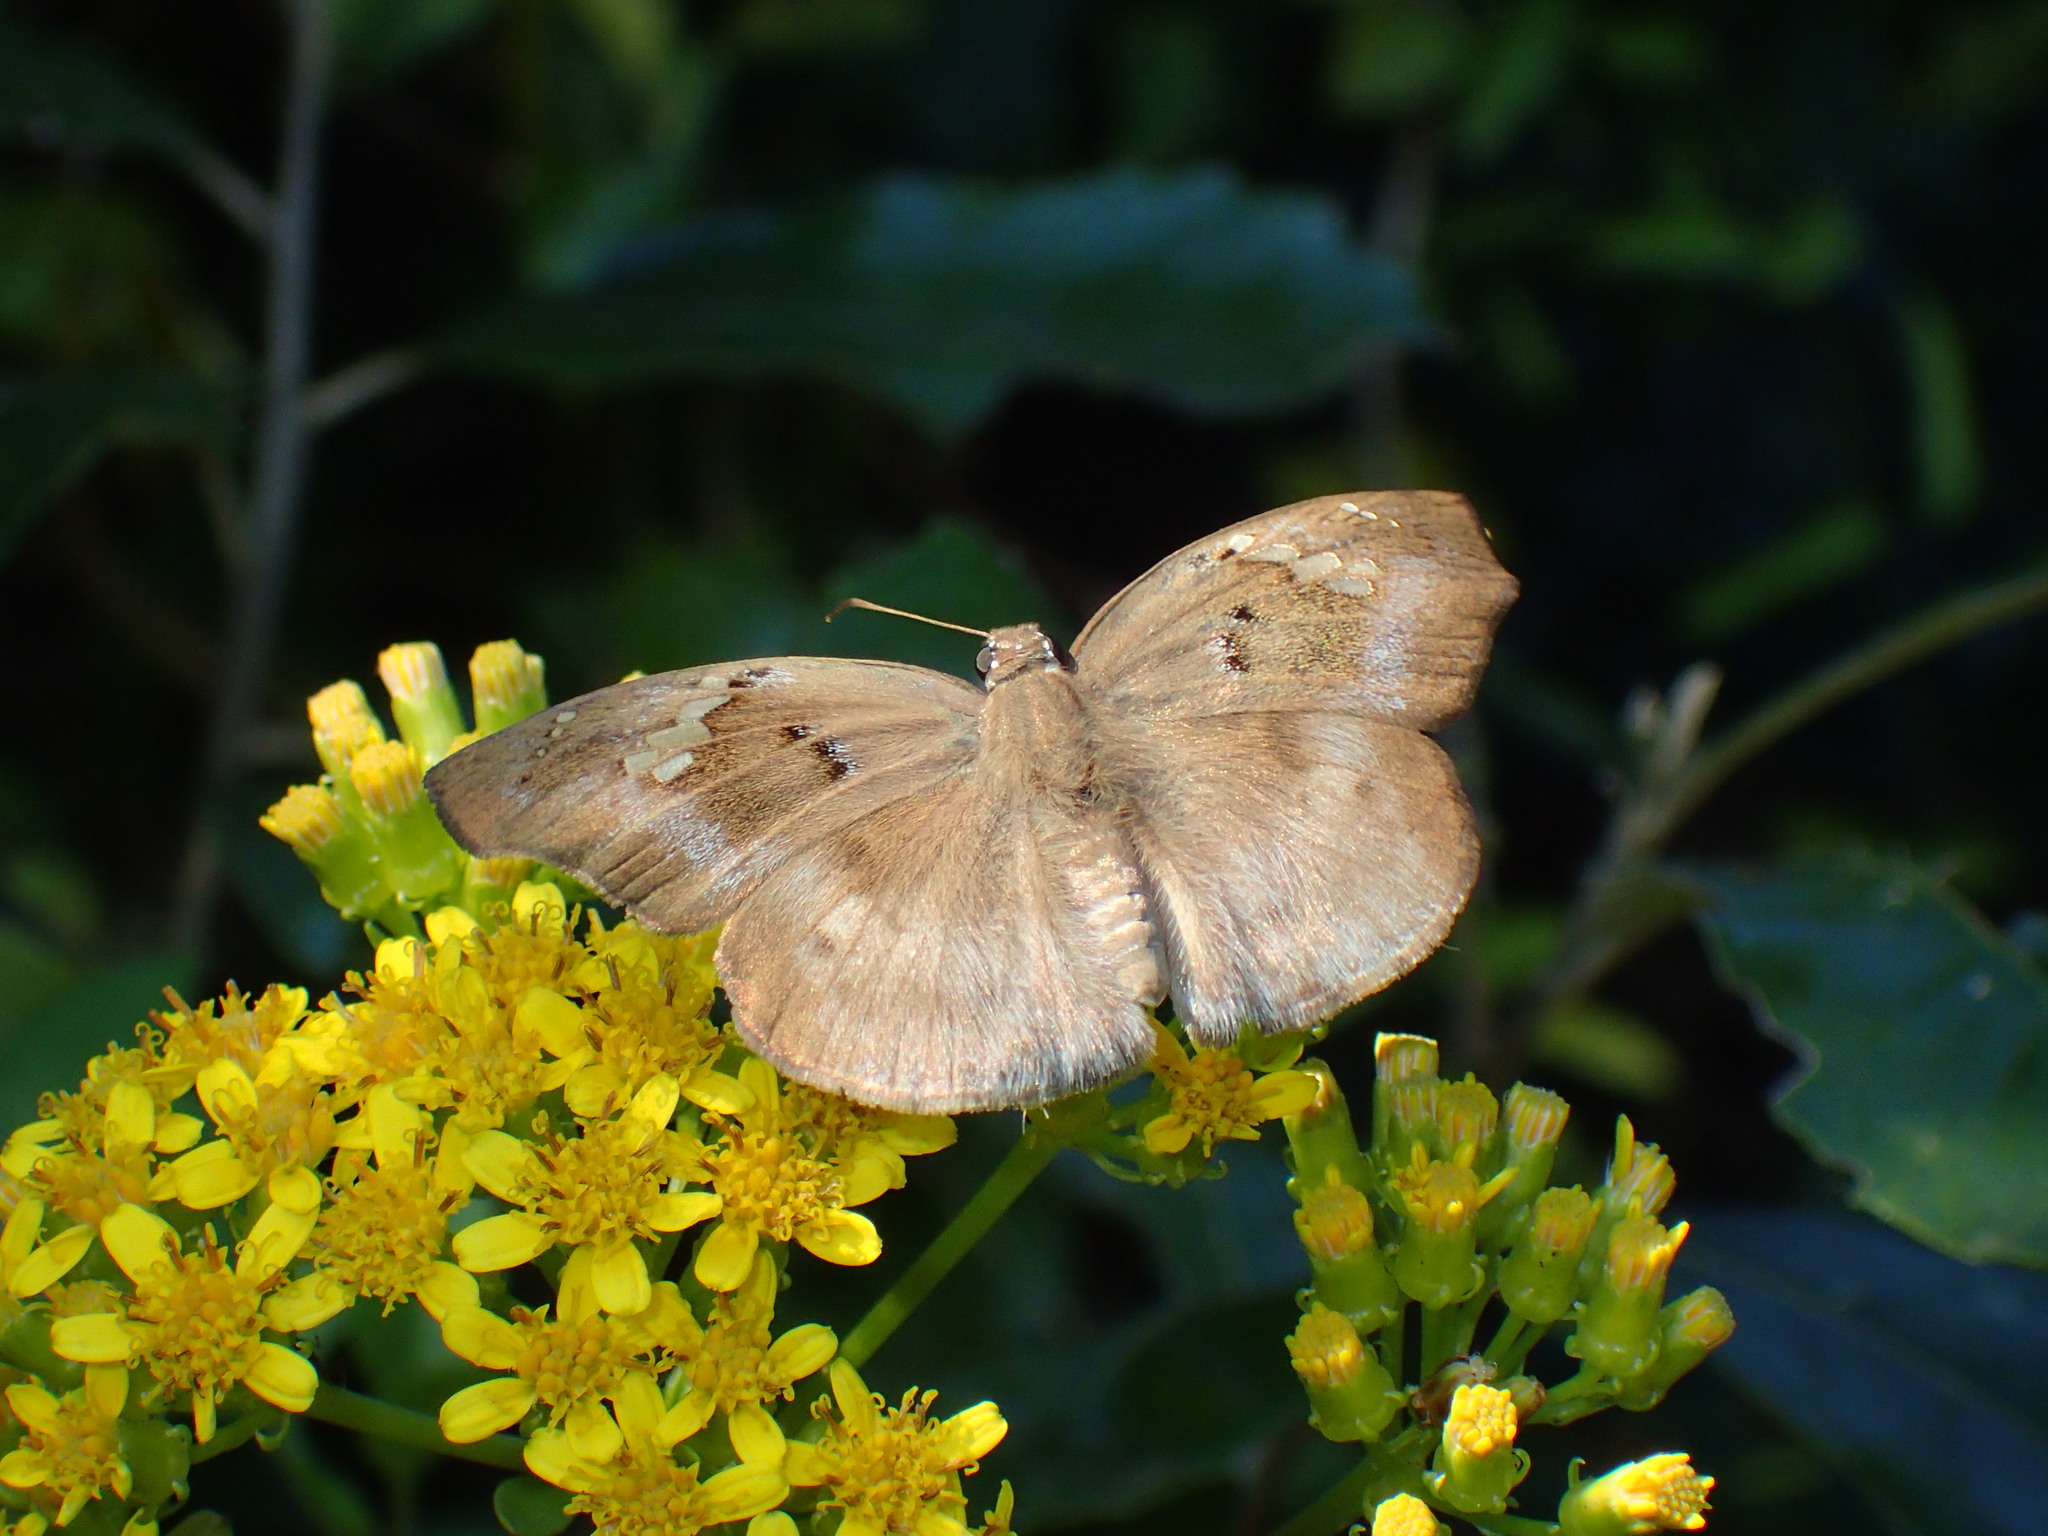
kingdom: Animalia
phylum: Arthropoda
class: Insecta
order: Lepidoptera
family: Hesperiidae
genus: Tagiades
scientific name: Tagiades flesus
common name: Clouded flat
